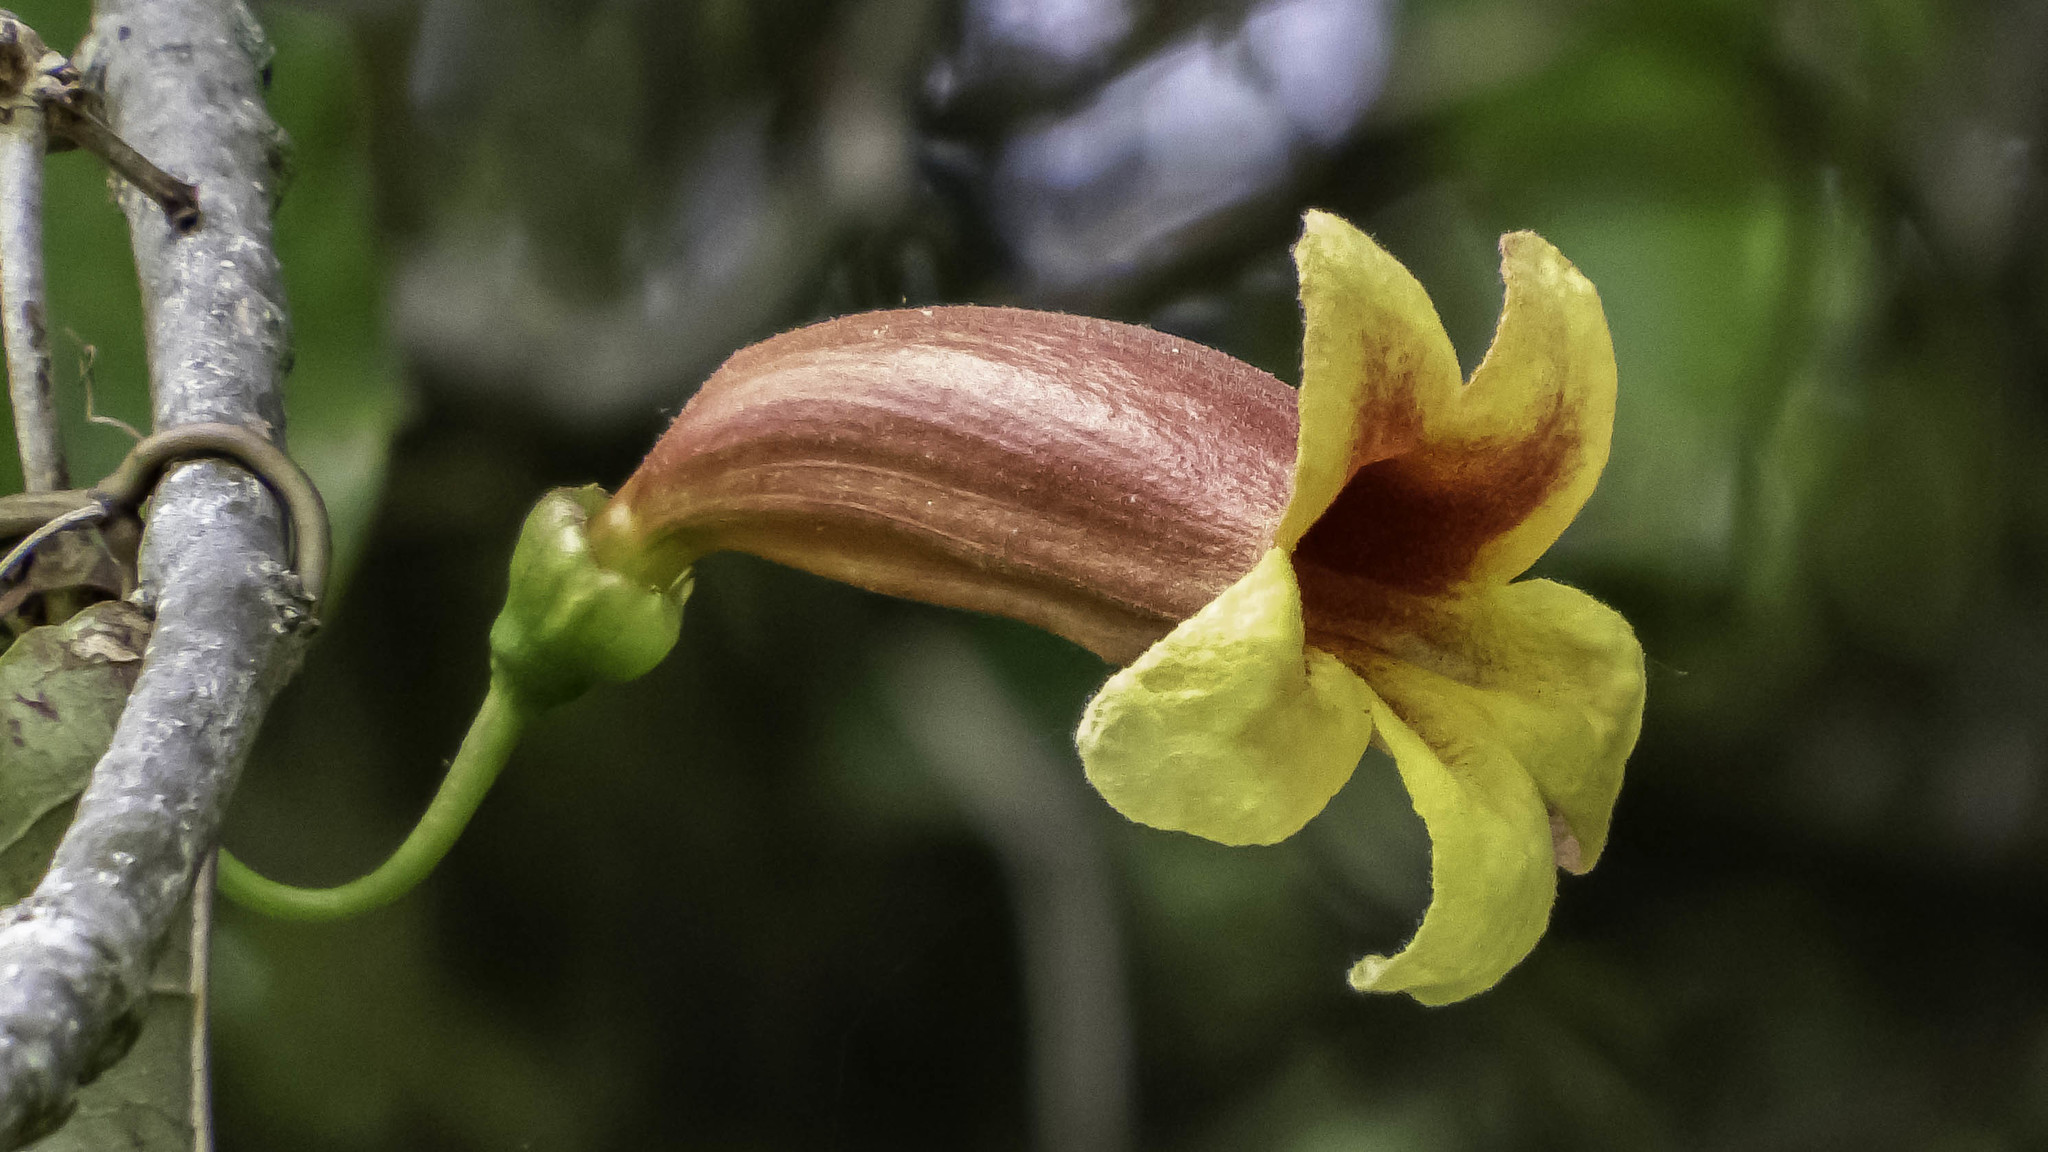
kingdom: Plantae
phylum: Tracheophyta
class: Magnoliopsida
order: Lamiales
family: Bignoniaceae
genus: Bignonia
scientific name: Bignonia capreolata
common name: Crossvine
